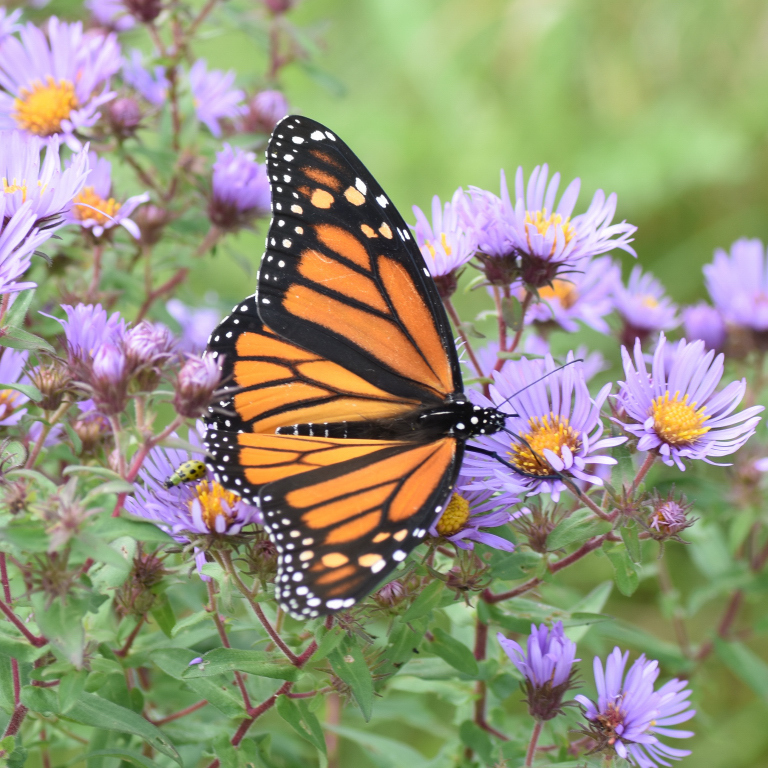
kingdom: Animalia
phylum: Arthropoda
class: Insecta
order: Lepidoptera
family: Nymphalidae
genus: Danaus
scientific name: Danaus plexippus
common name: Monarch
